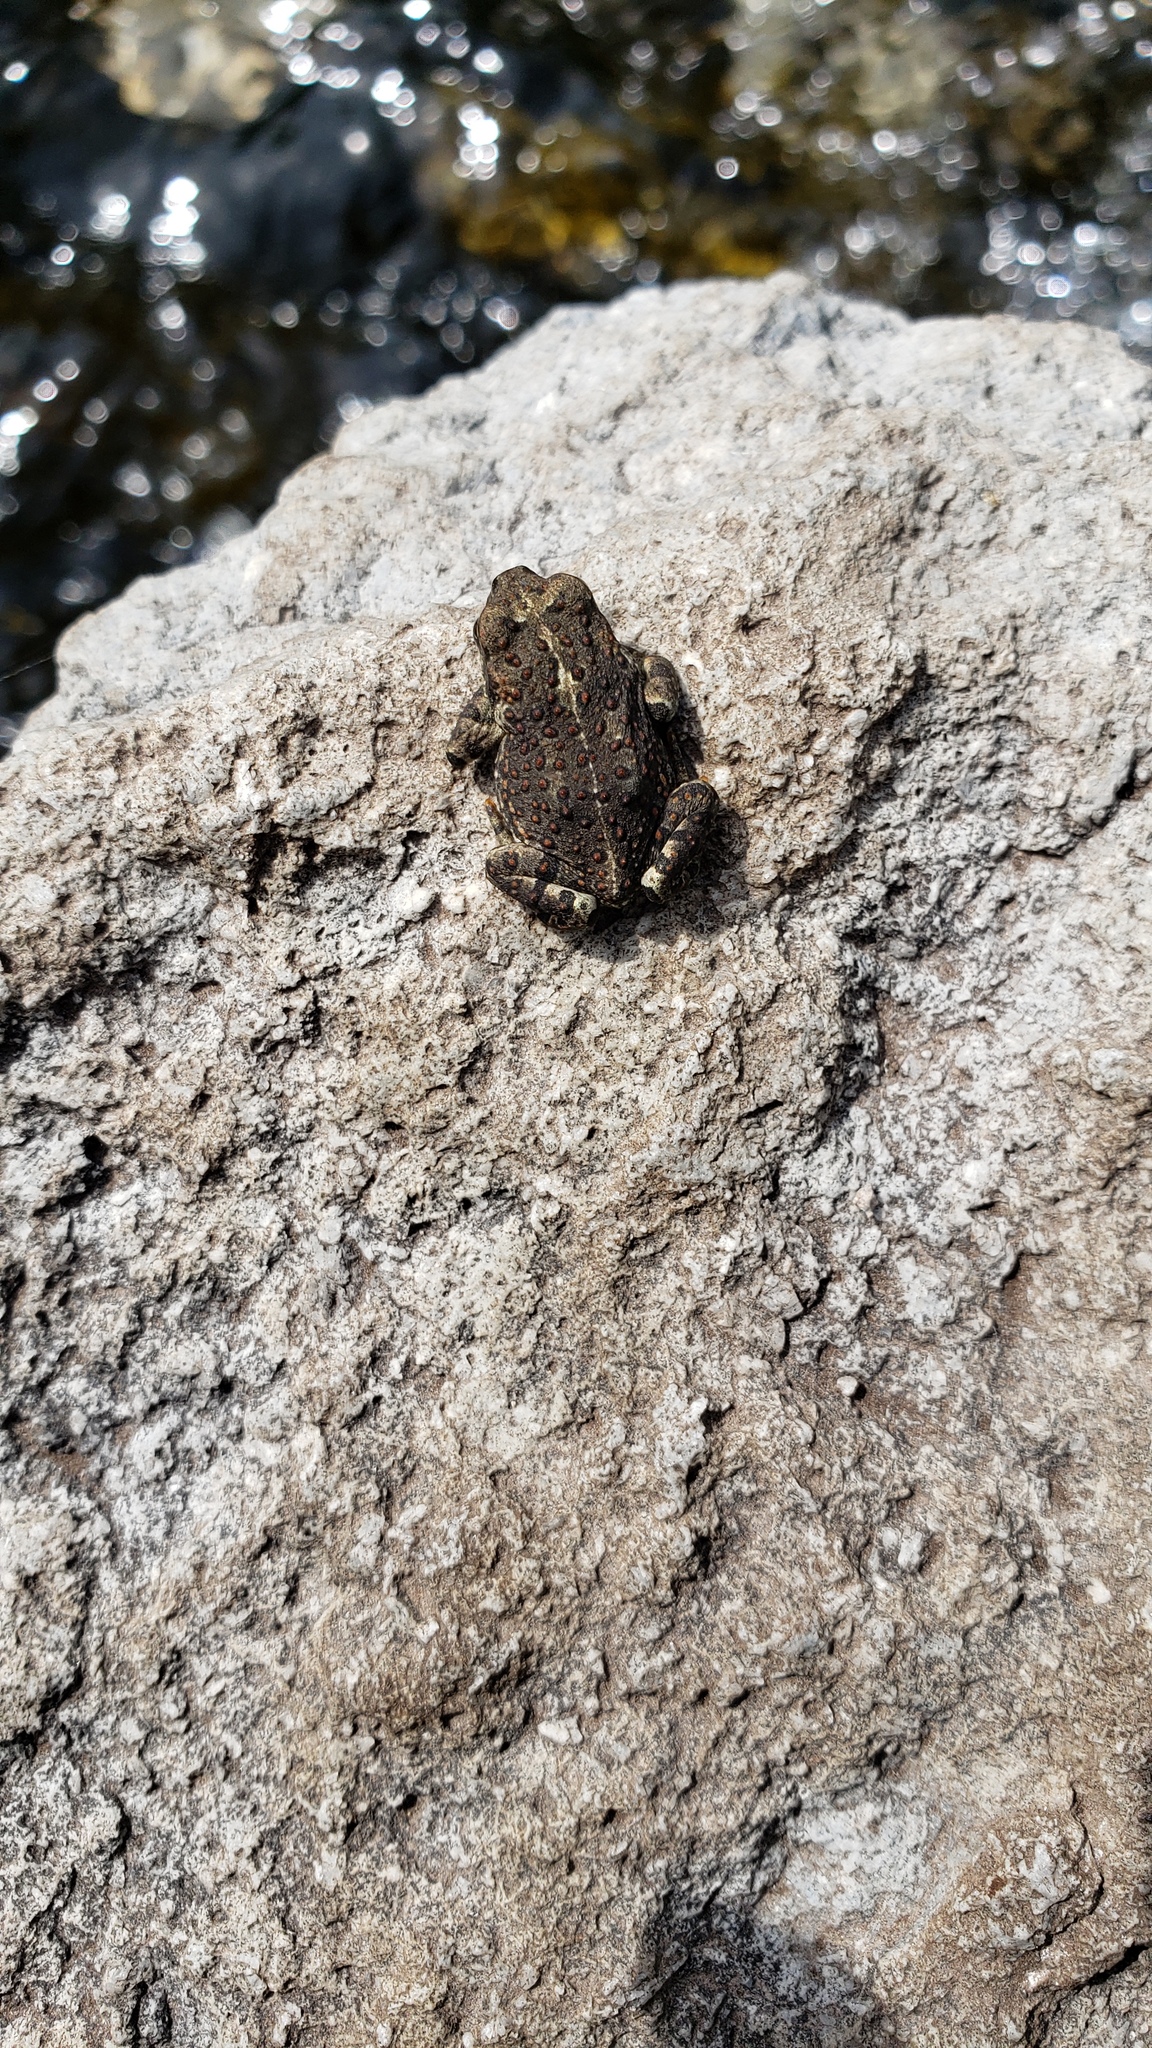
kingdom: Animalia
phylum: Chordata
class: Amphibia
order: Anura
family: Bufonidae
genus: Anaxyrus
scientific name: Anaxyrus boreas
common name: Western toad
